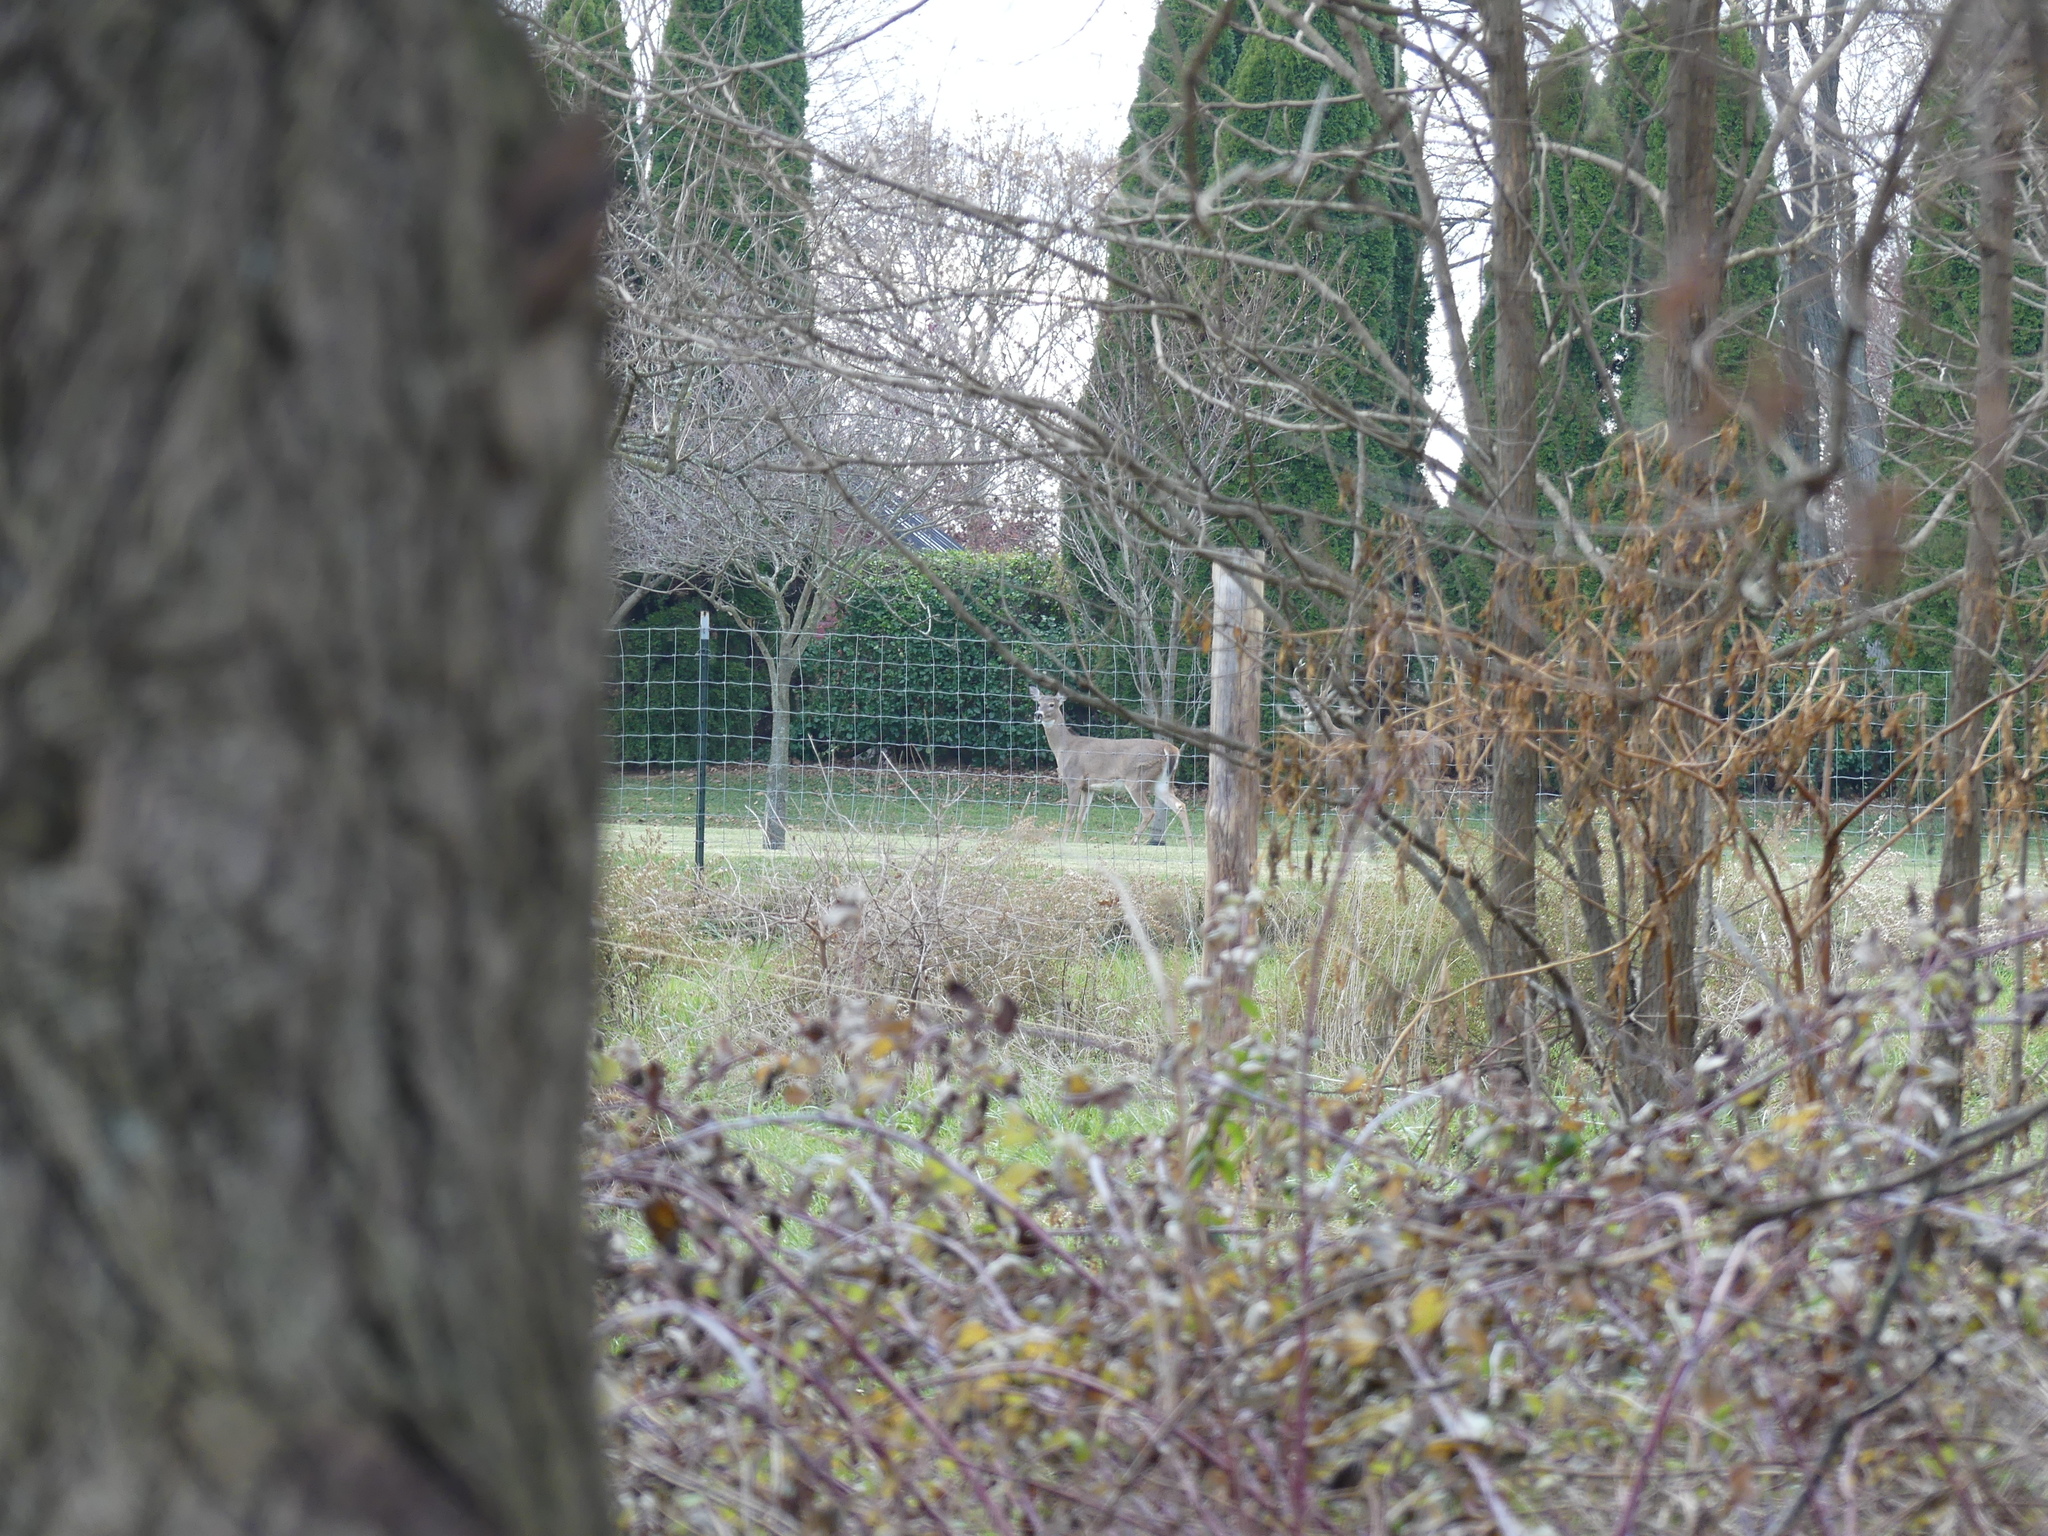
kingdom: Animalia
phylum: Chordata
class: Mammalia
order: Artiodactyla
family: Cervidae
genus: Odocoileus
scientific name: Odocoileus virginianus
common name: White-tailed deer
